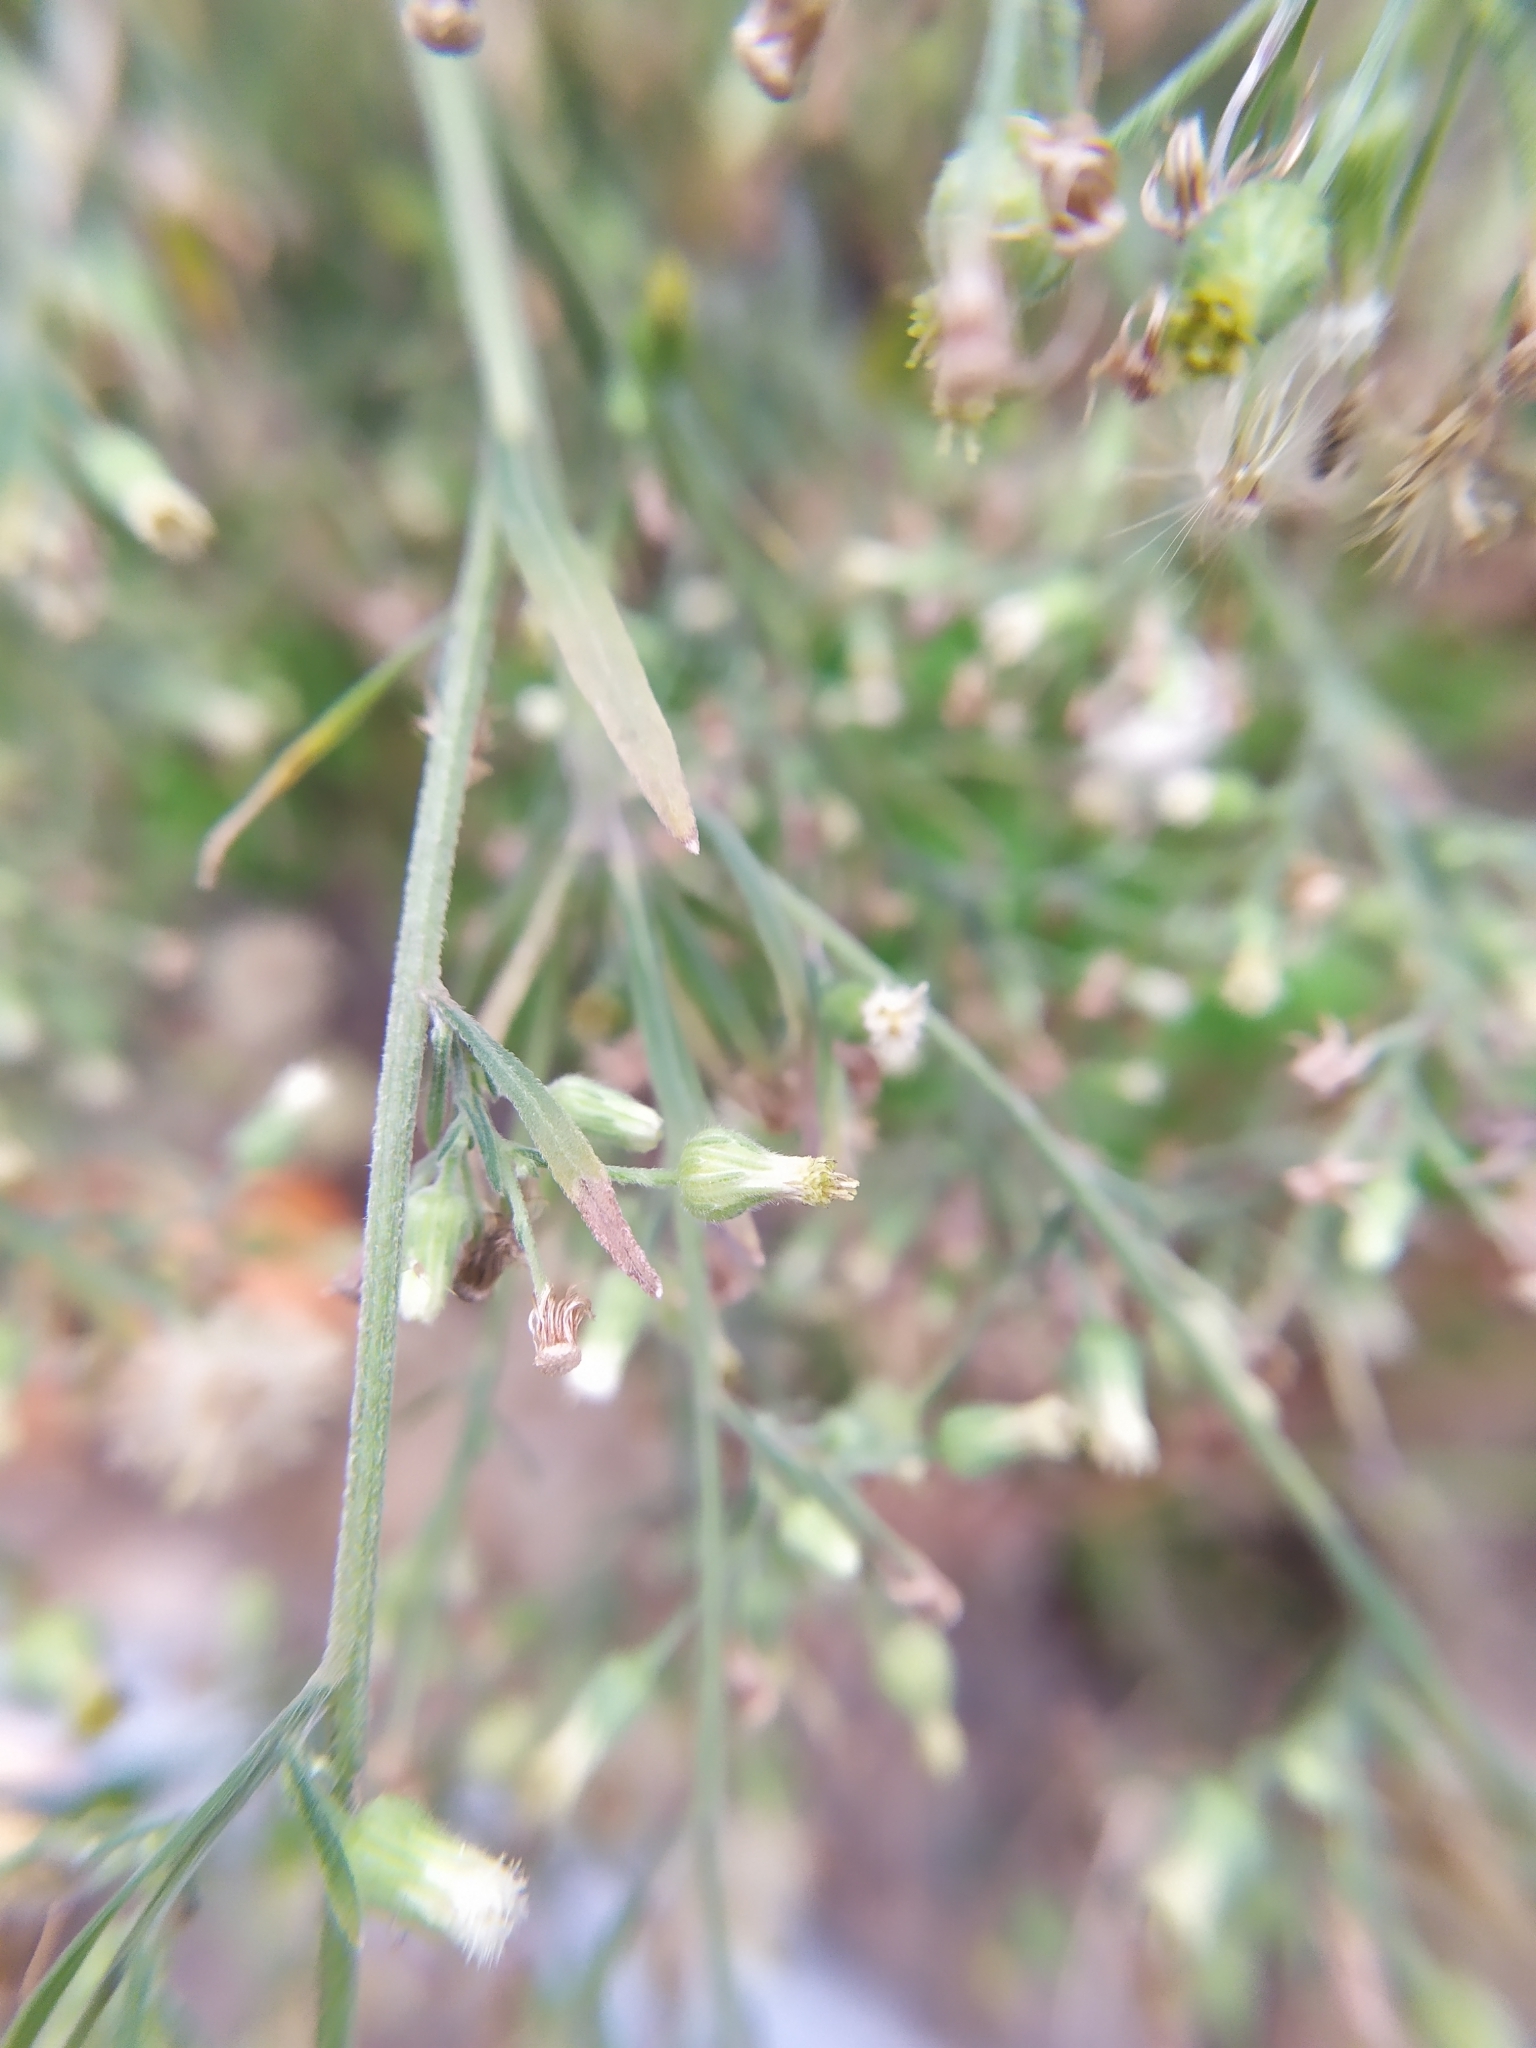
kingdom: Plantae
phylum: Tracheophyta
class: Magnoliopsida
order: Asterales
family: Asteraceae
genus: Erigeron
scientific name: Erigeron sumatrensis
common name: Daisy
